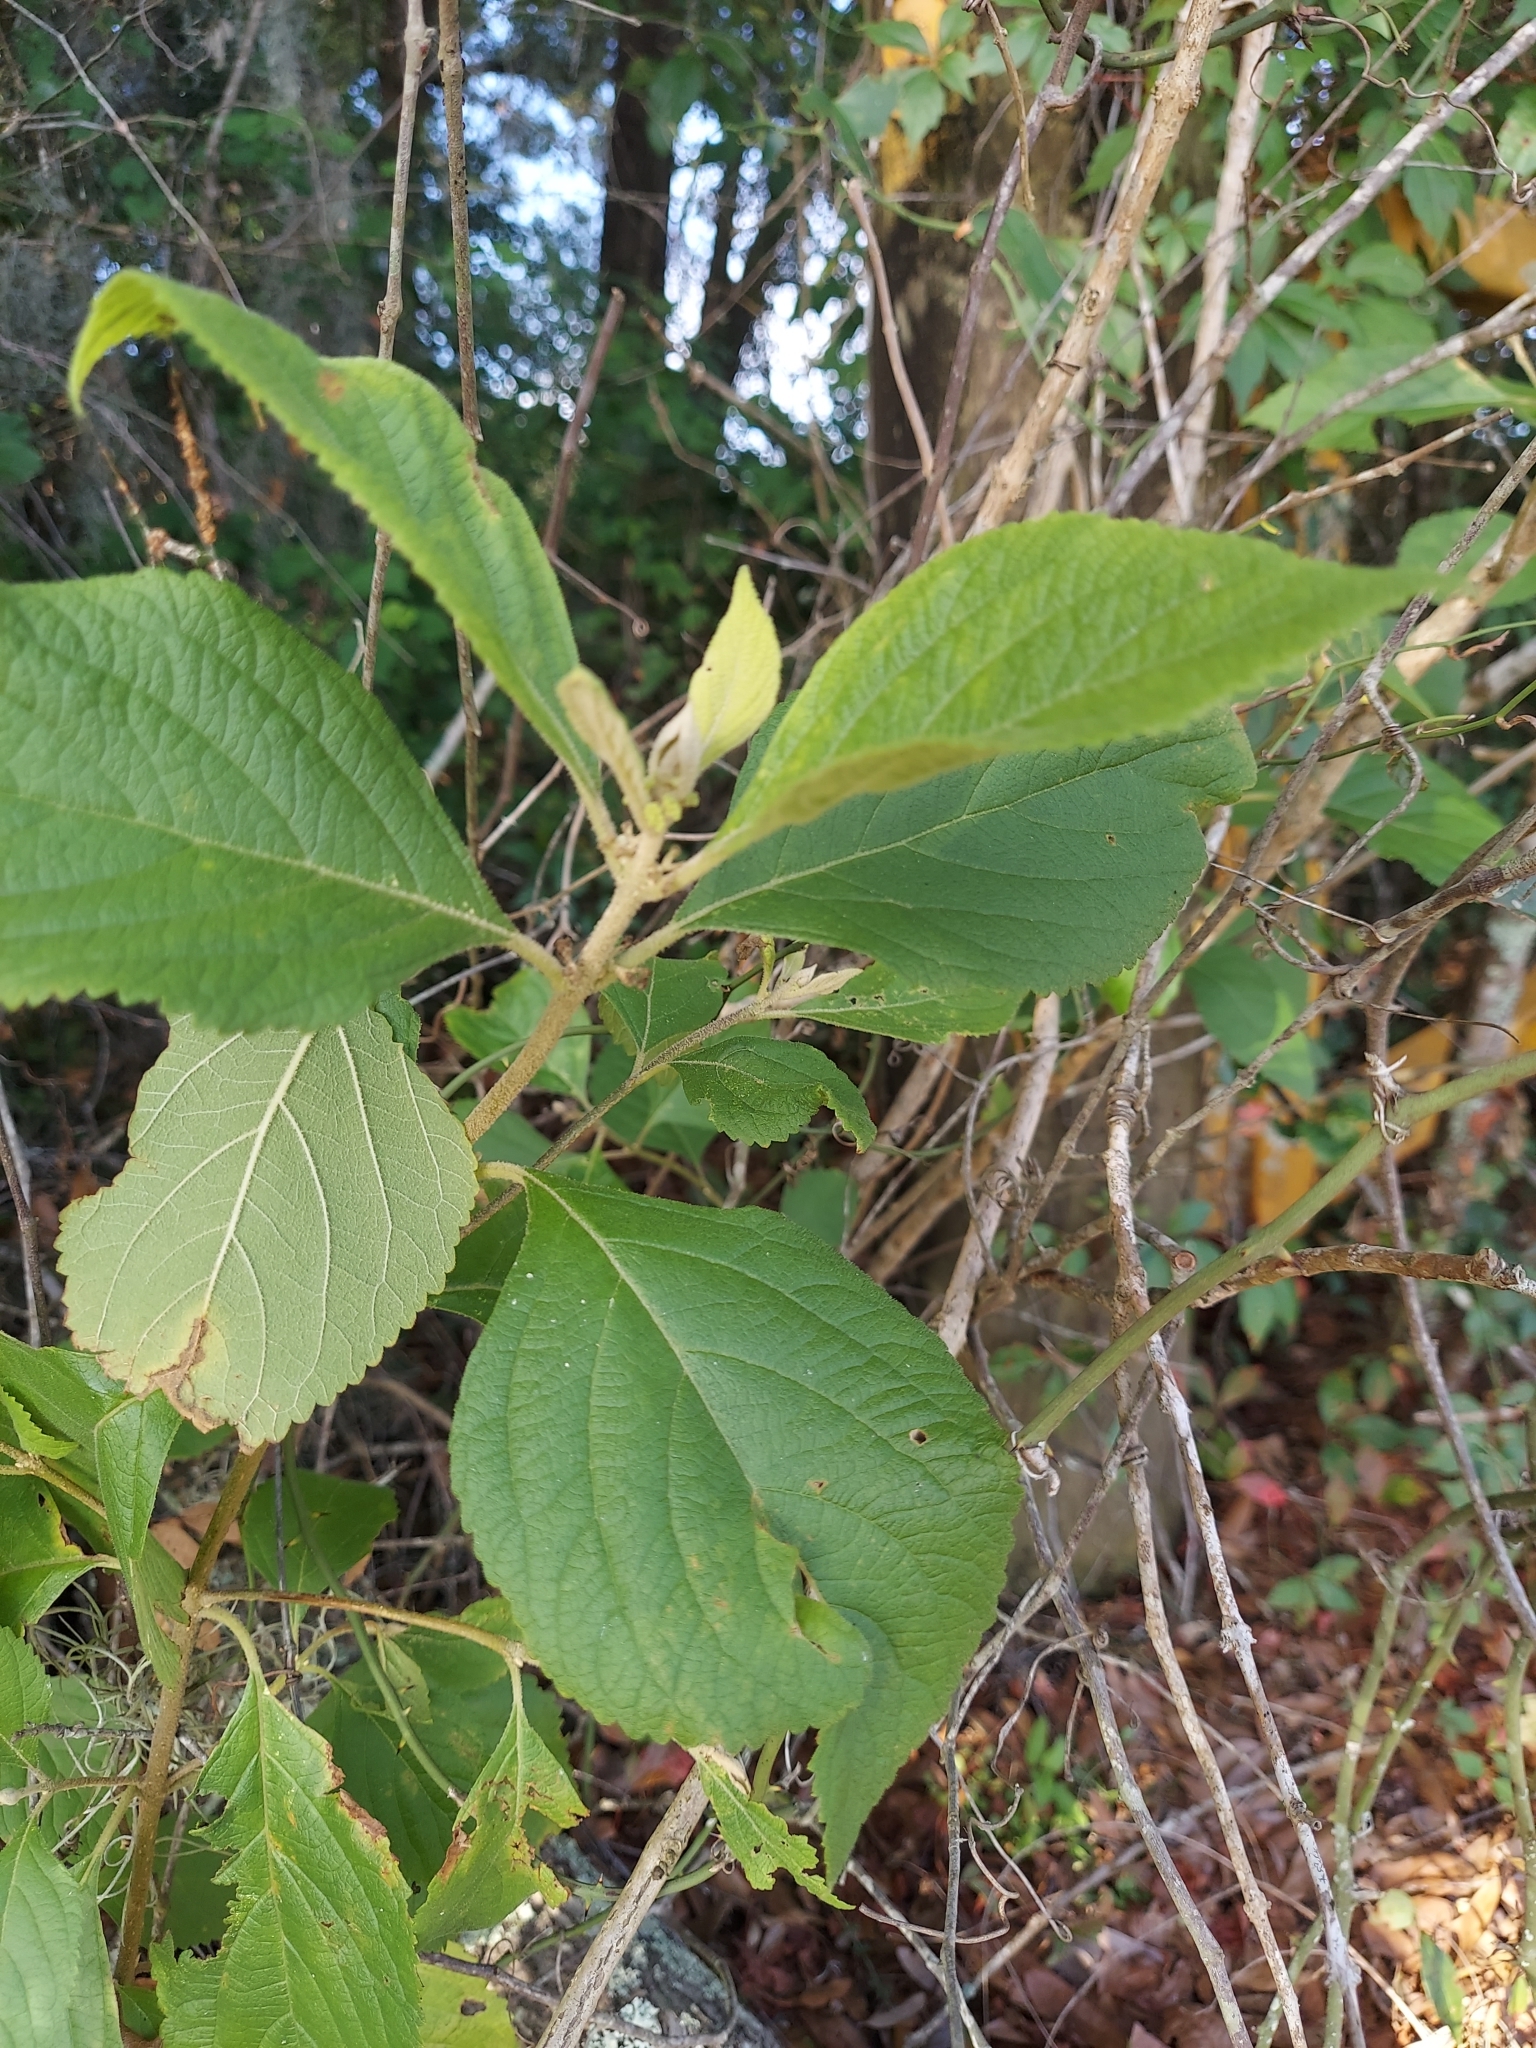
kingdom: Plantae
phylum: Tracheophyta
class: Magnoliopsida
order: Lamiales
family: Lamiaceae
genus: Callicarpa
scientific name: Callicarpa americana
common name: American beautyberry
